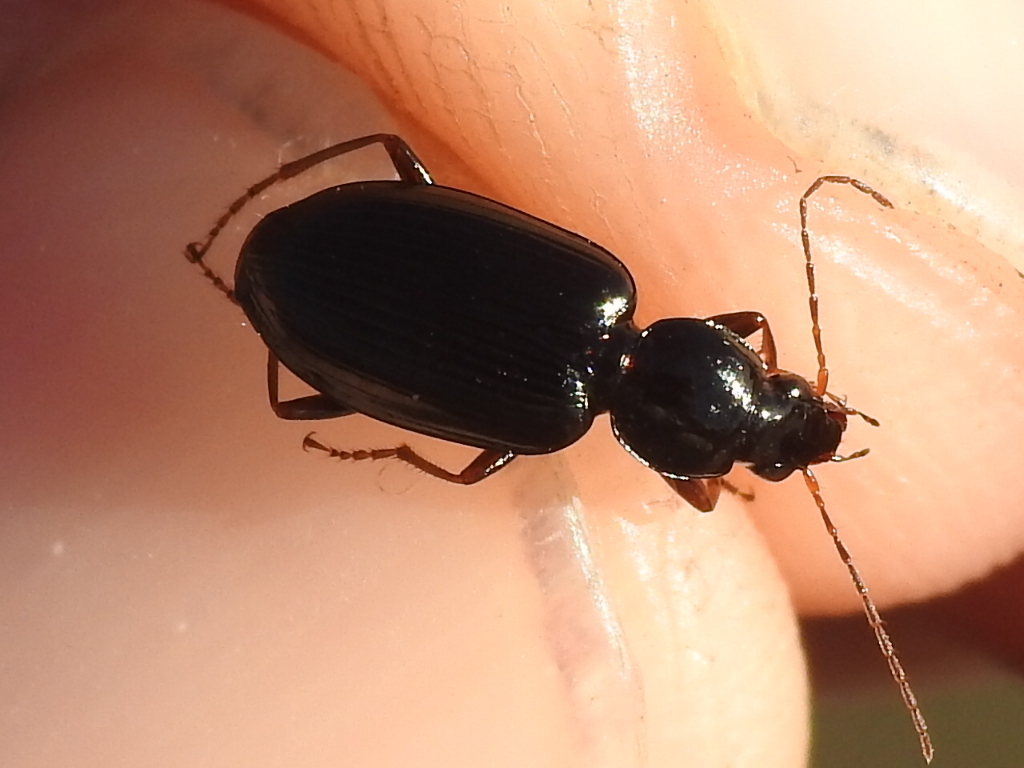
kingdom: Animalia
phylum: Arthropoda
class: Insecta
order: Coleoptera
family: Carabidae
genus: Agonum
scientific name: Agonum punctiforme
